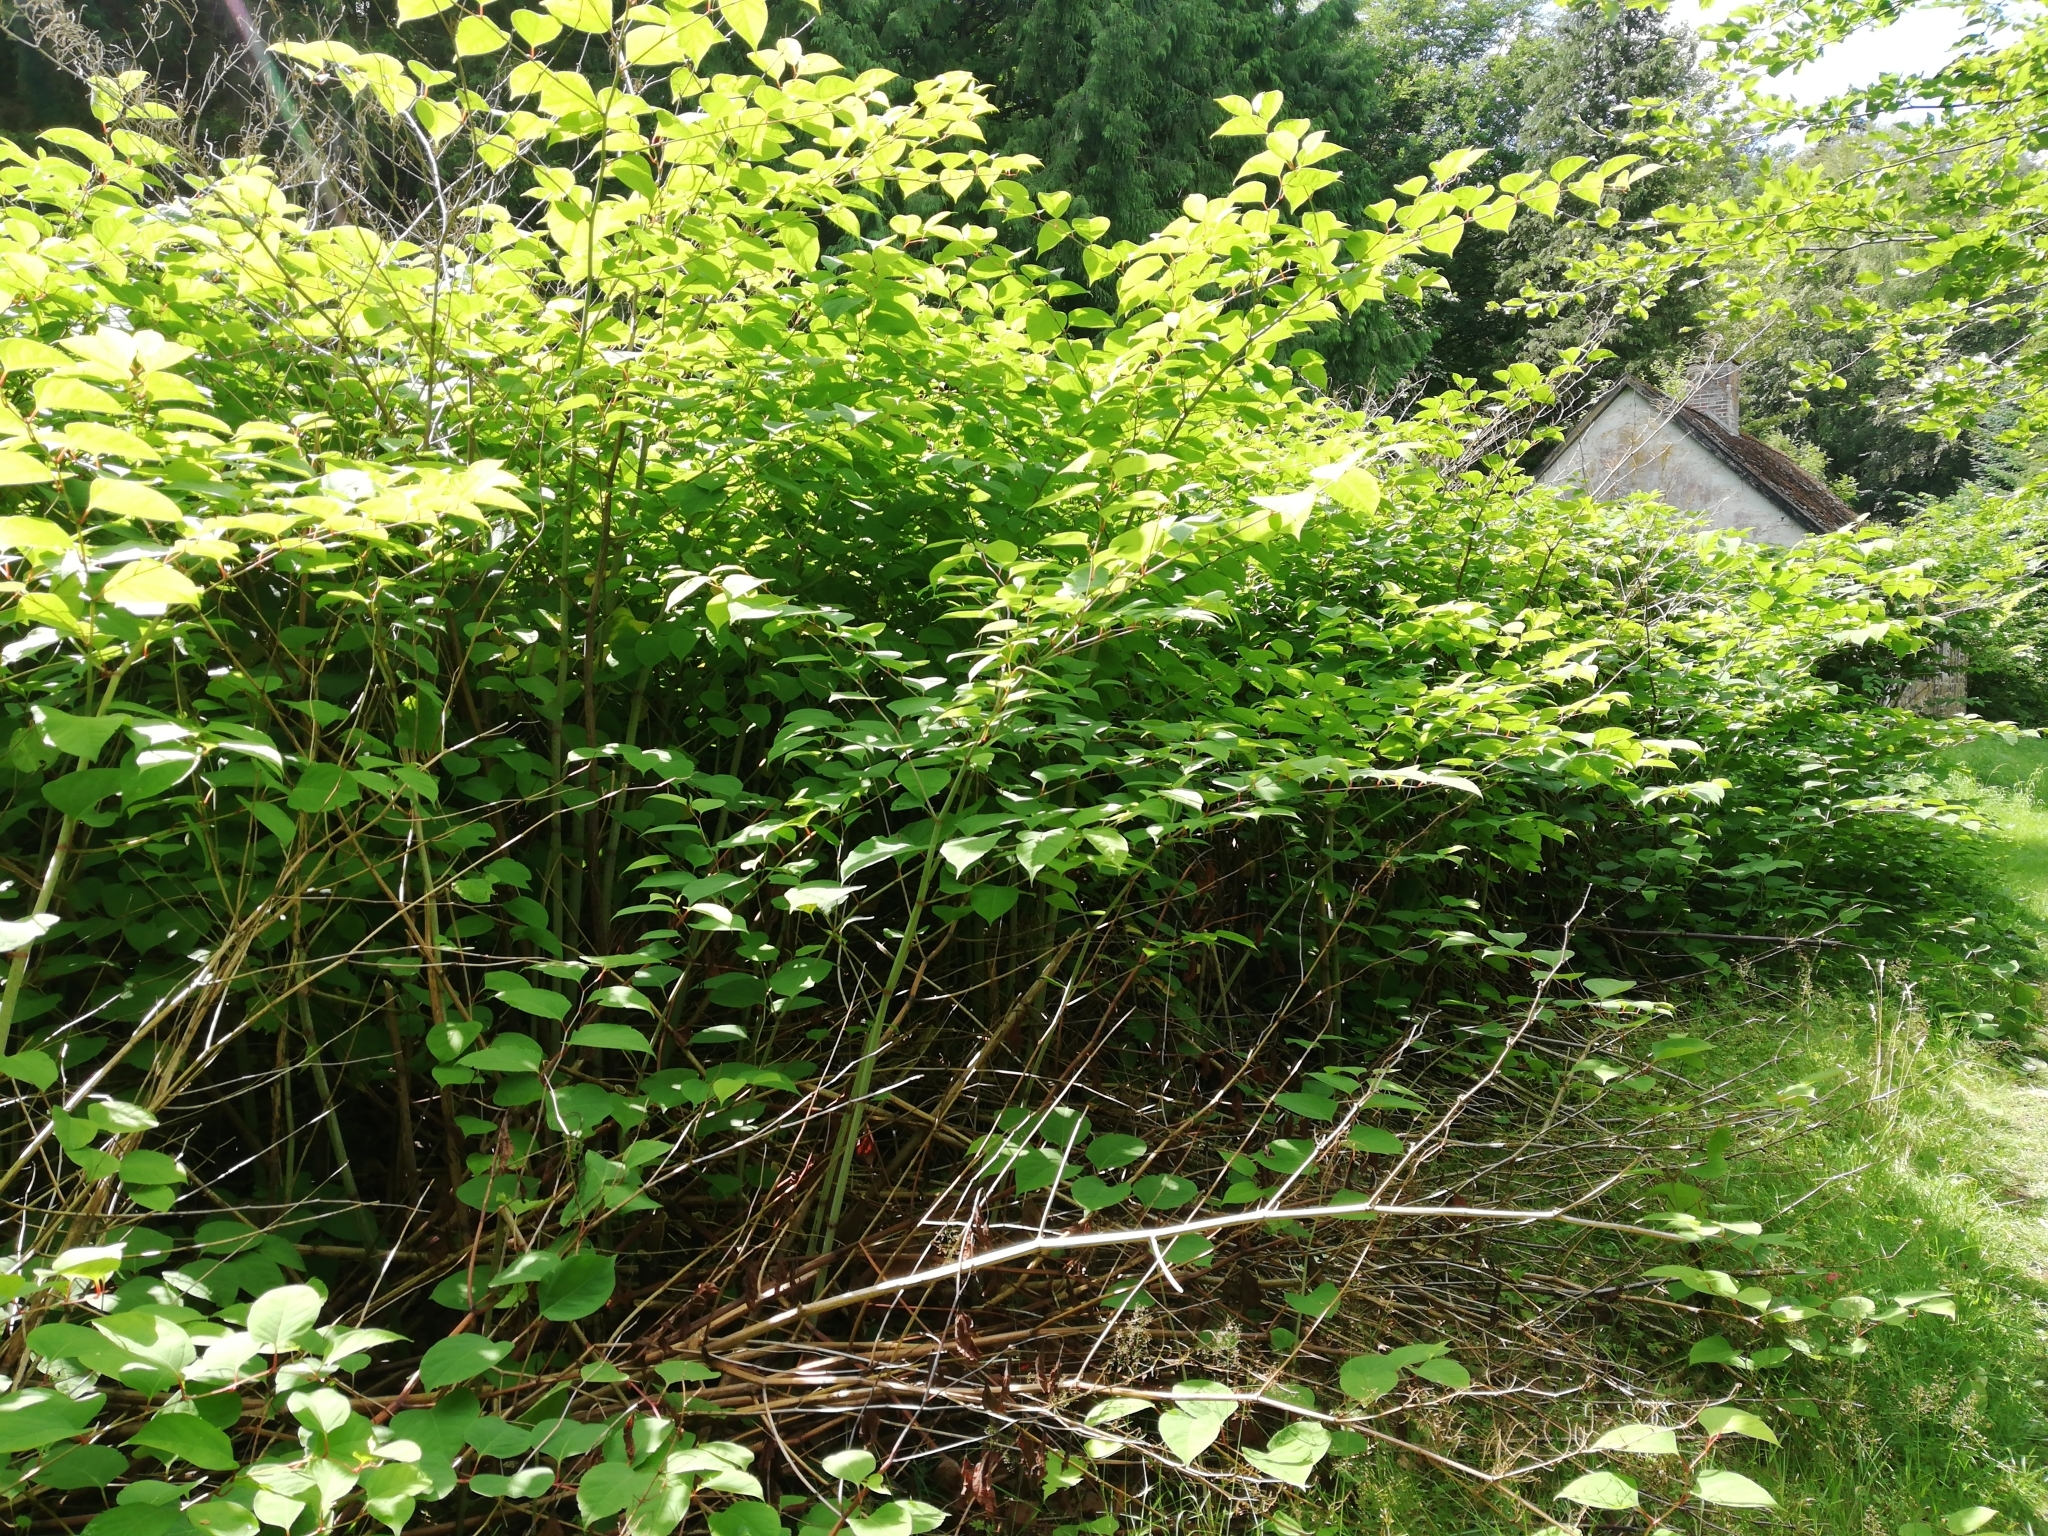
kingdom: Plantae
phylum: Tracheophyta
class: Magnoliopsida
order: Caryophyllales
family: Polygonaceae
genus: Reynoutria
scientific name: Reynoutria japonica
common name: Japanese knotweed
